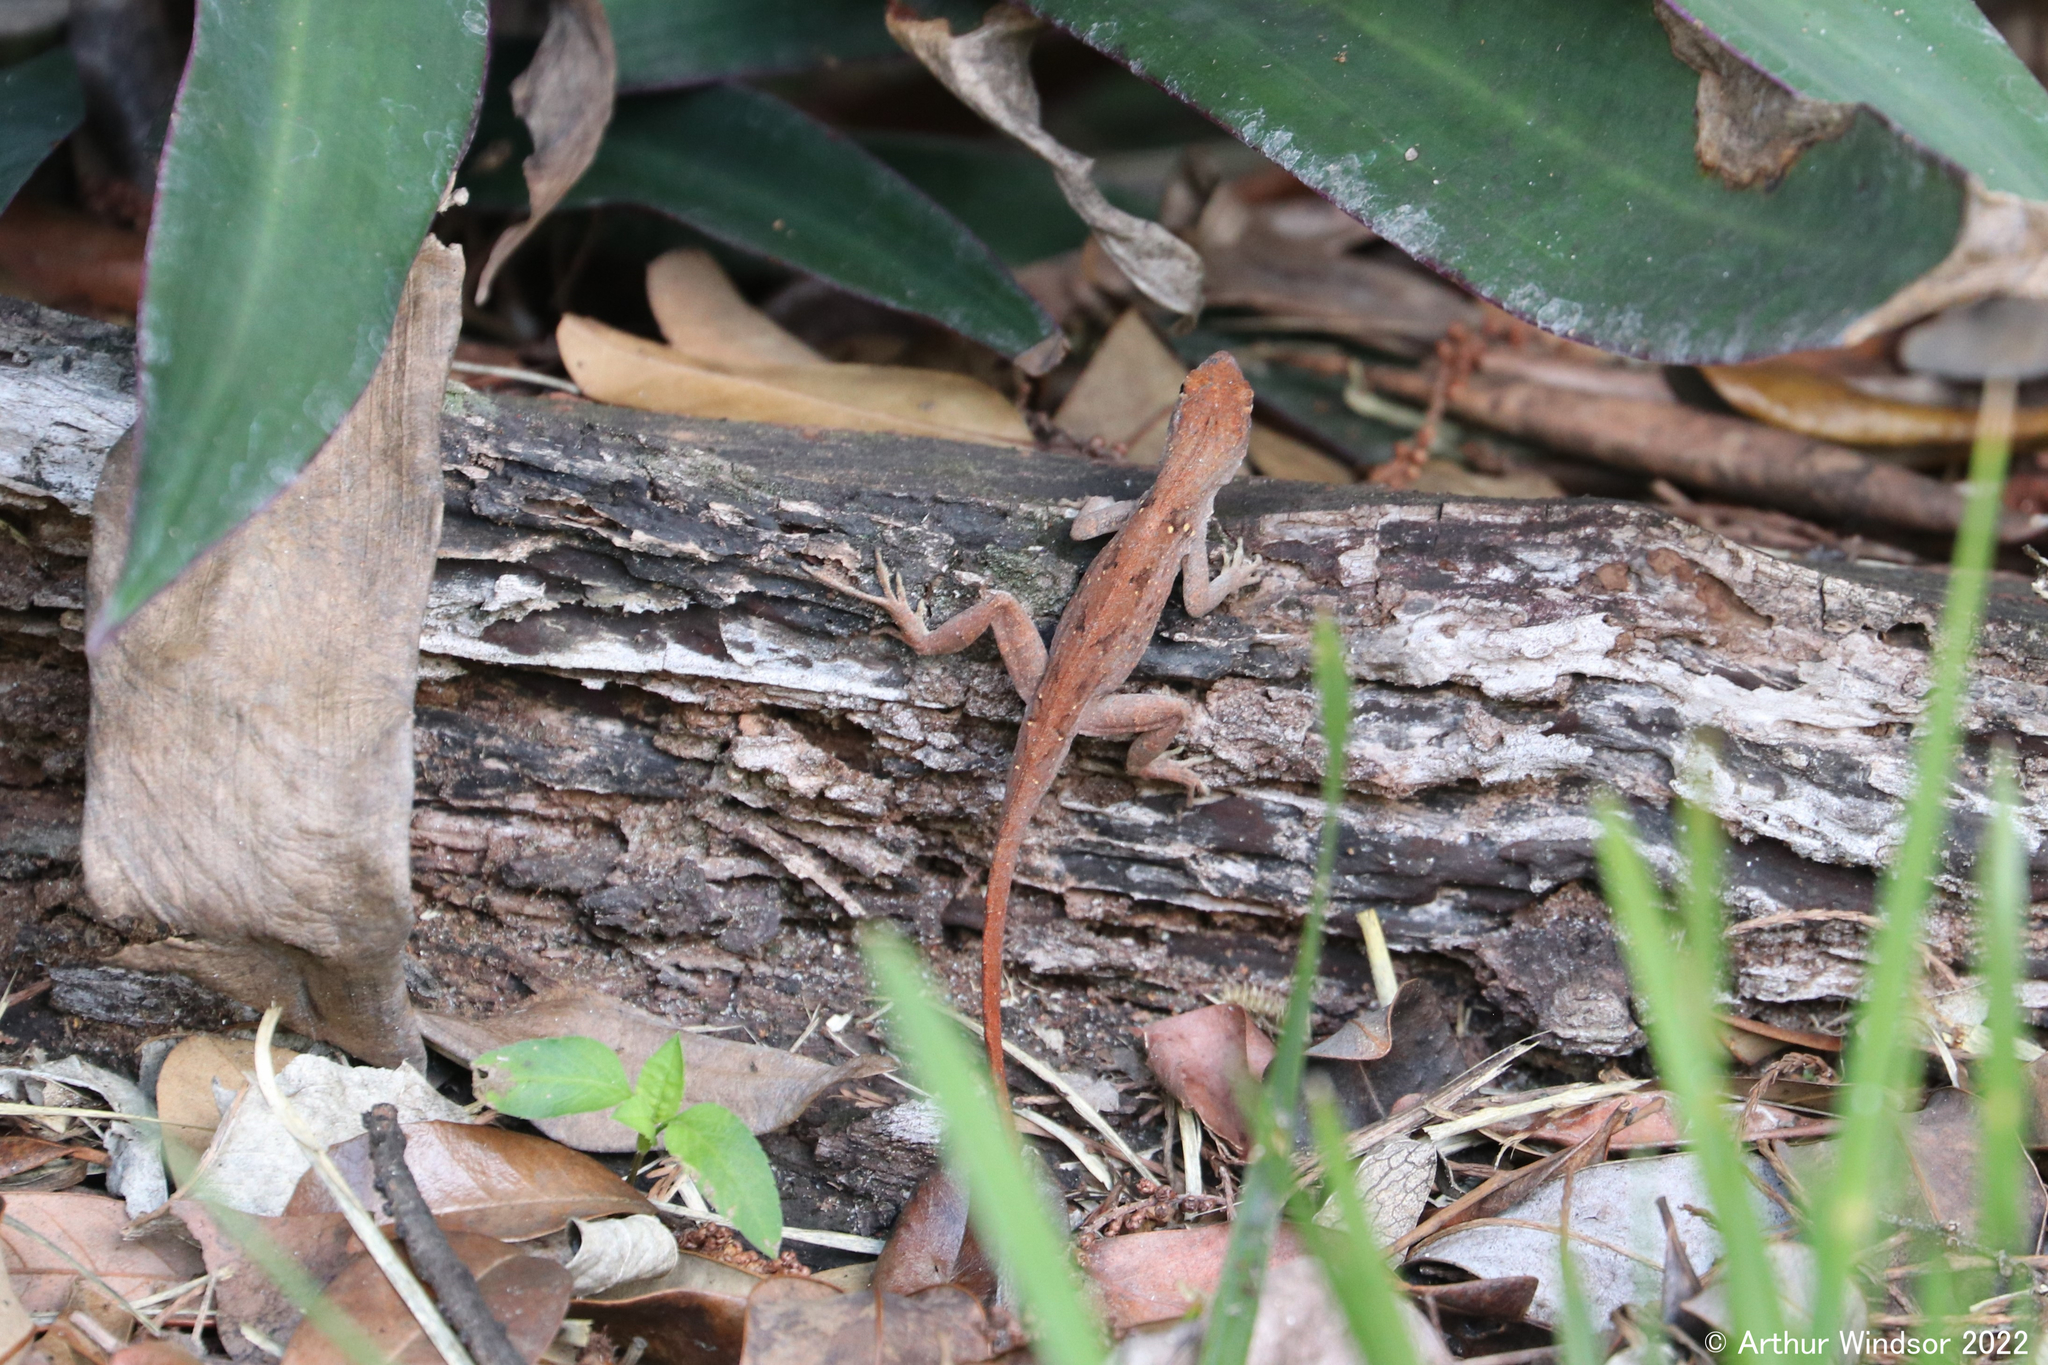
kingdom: Animalia
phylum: Chordata
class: Squamata
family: Dactyloidae
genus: Anolis
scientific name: Anolis sagrei
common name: Brown anole
